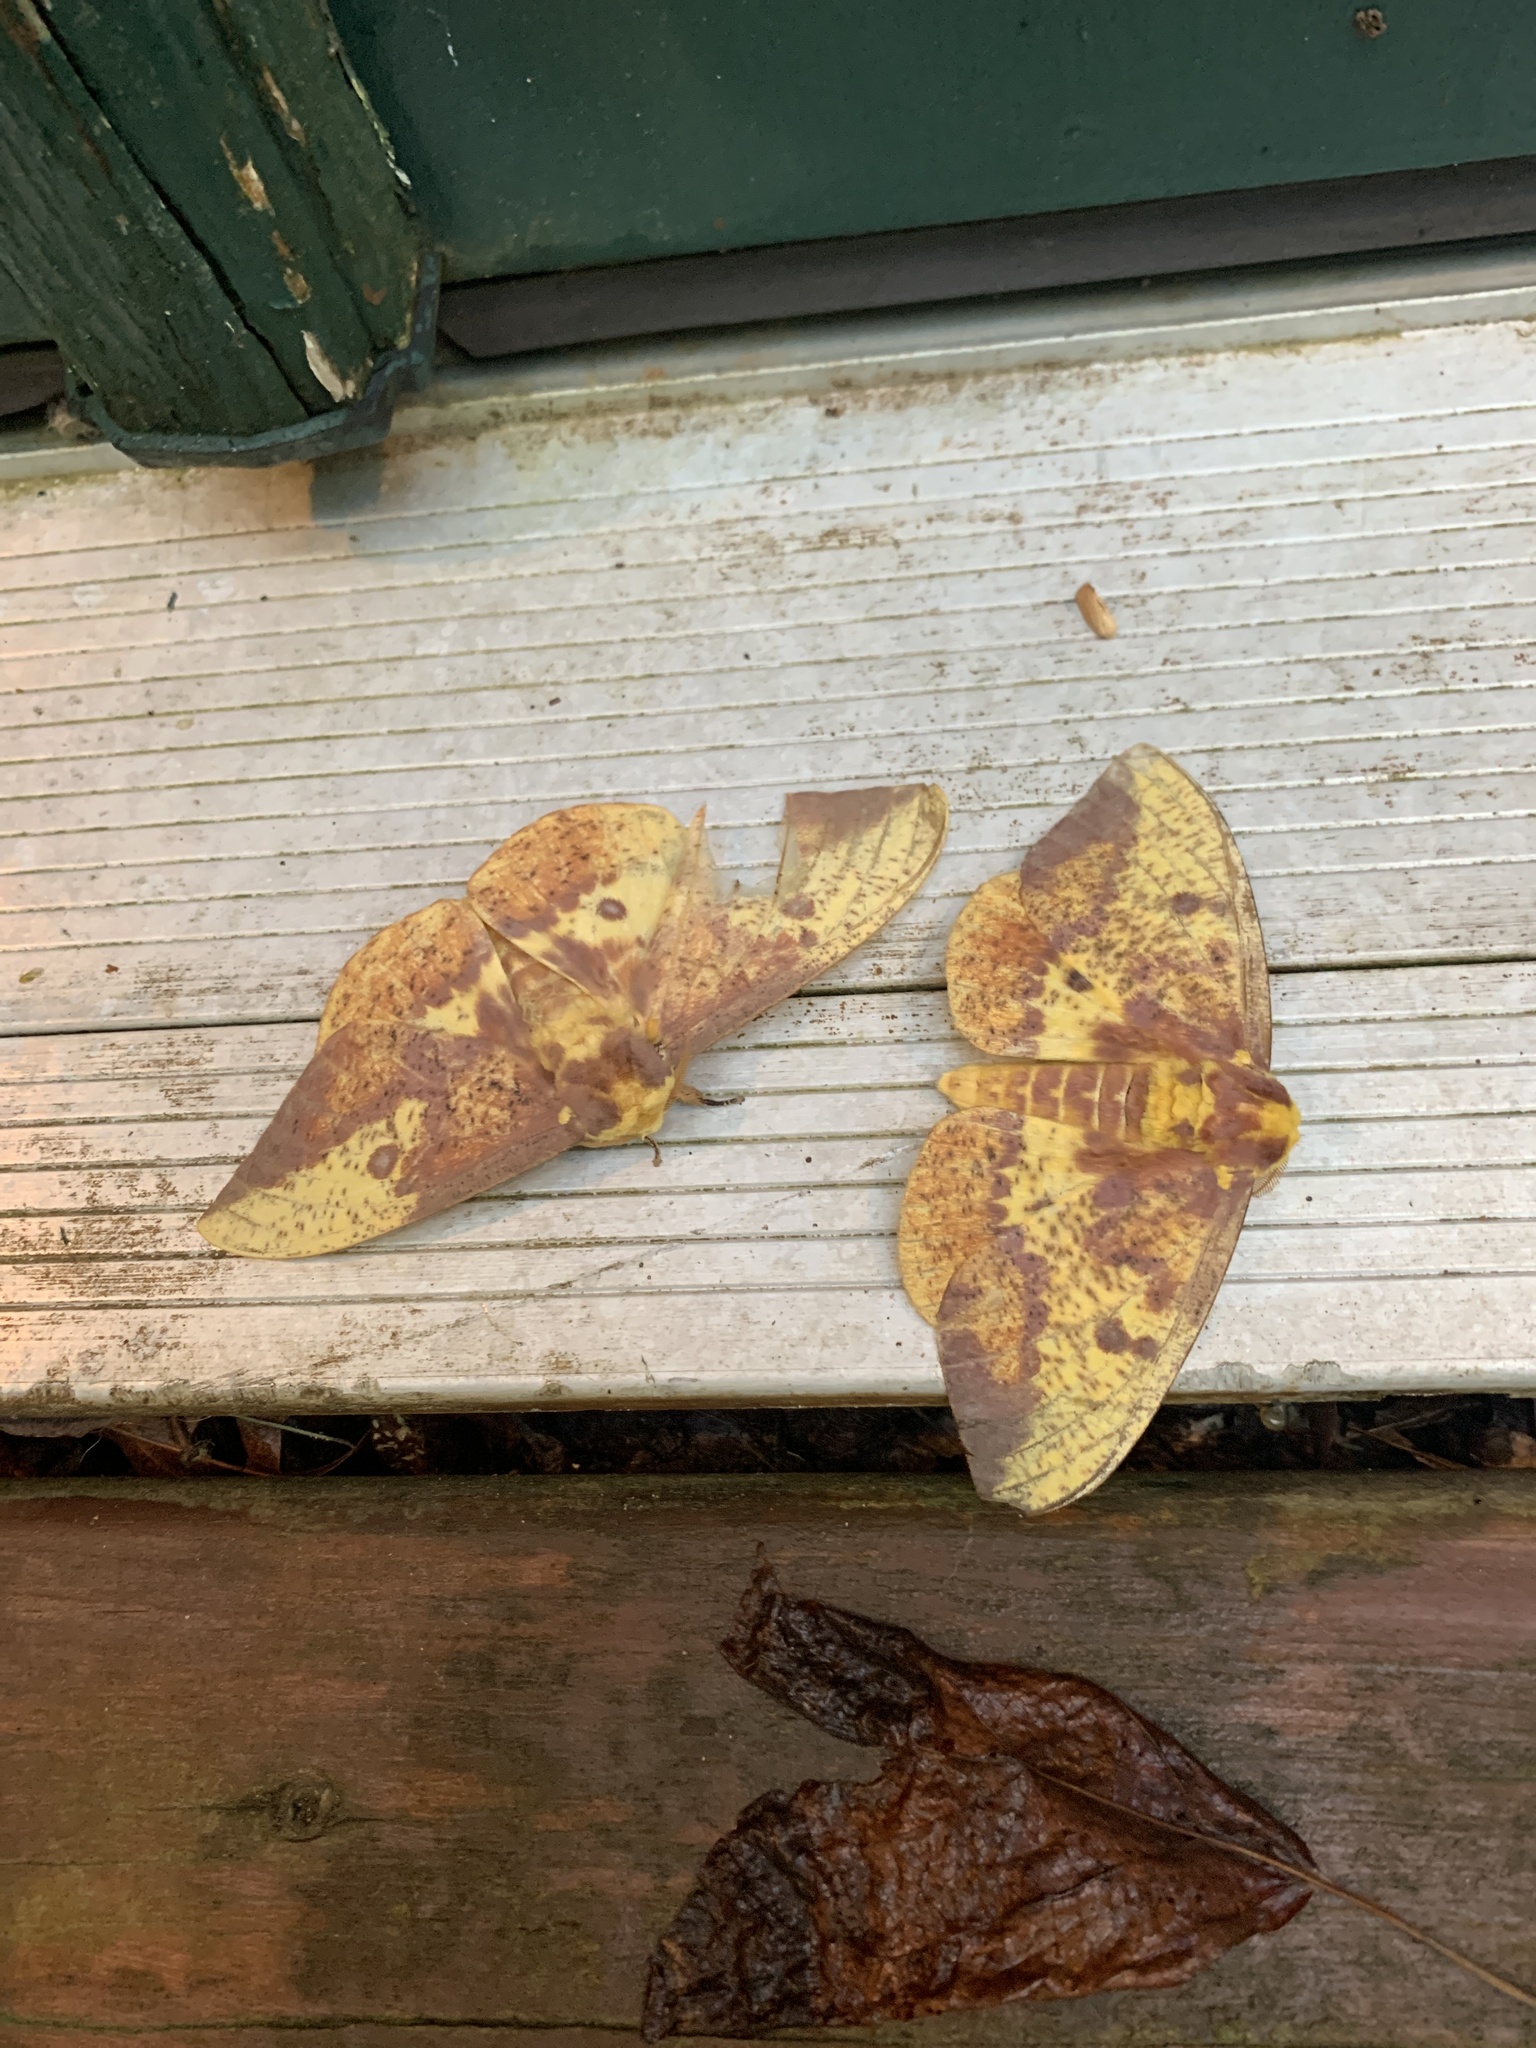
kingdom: Animalia
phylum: Arthropoda
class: Insecta
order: Lepidoptera
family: Saturniidae
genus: Eacles
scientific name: Eacles imperialis
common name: Imperial moth
